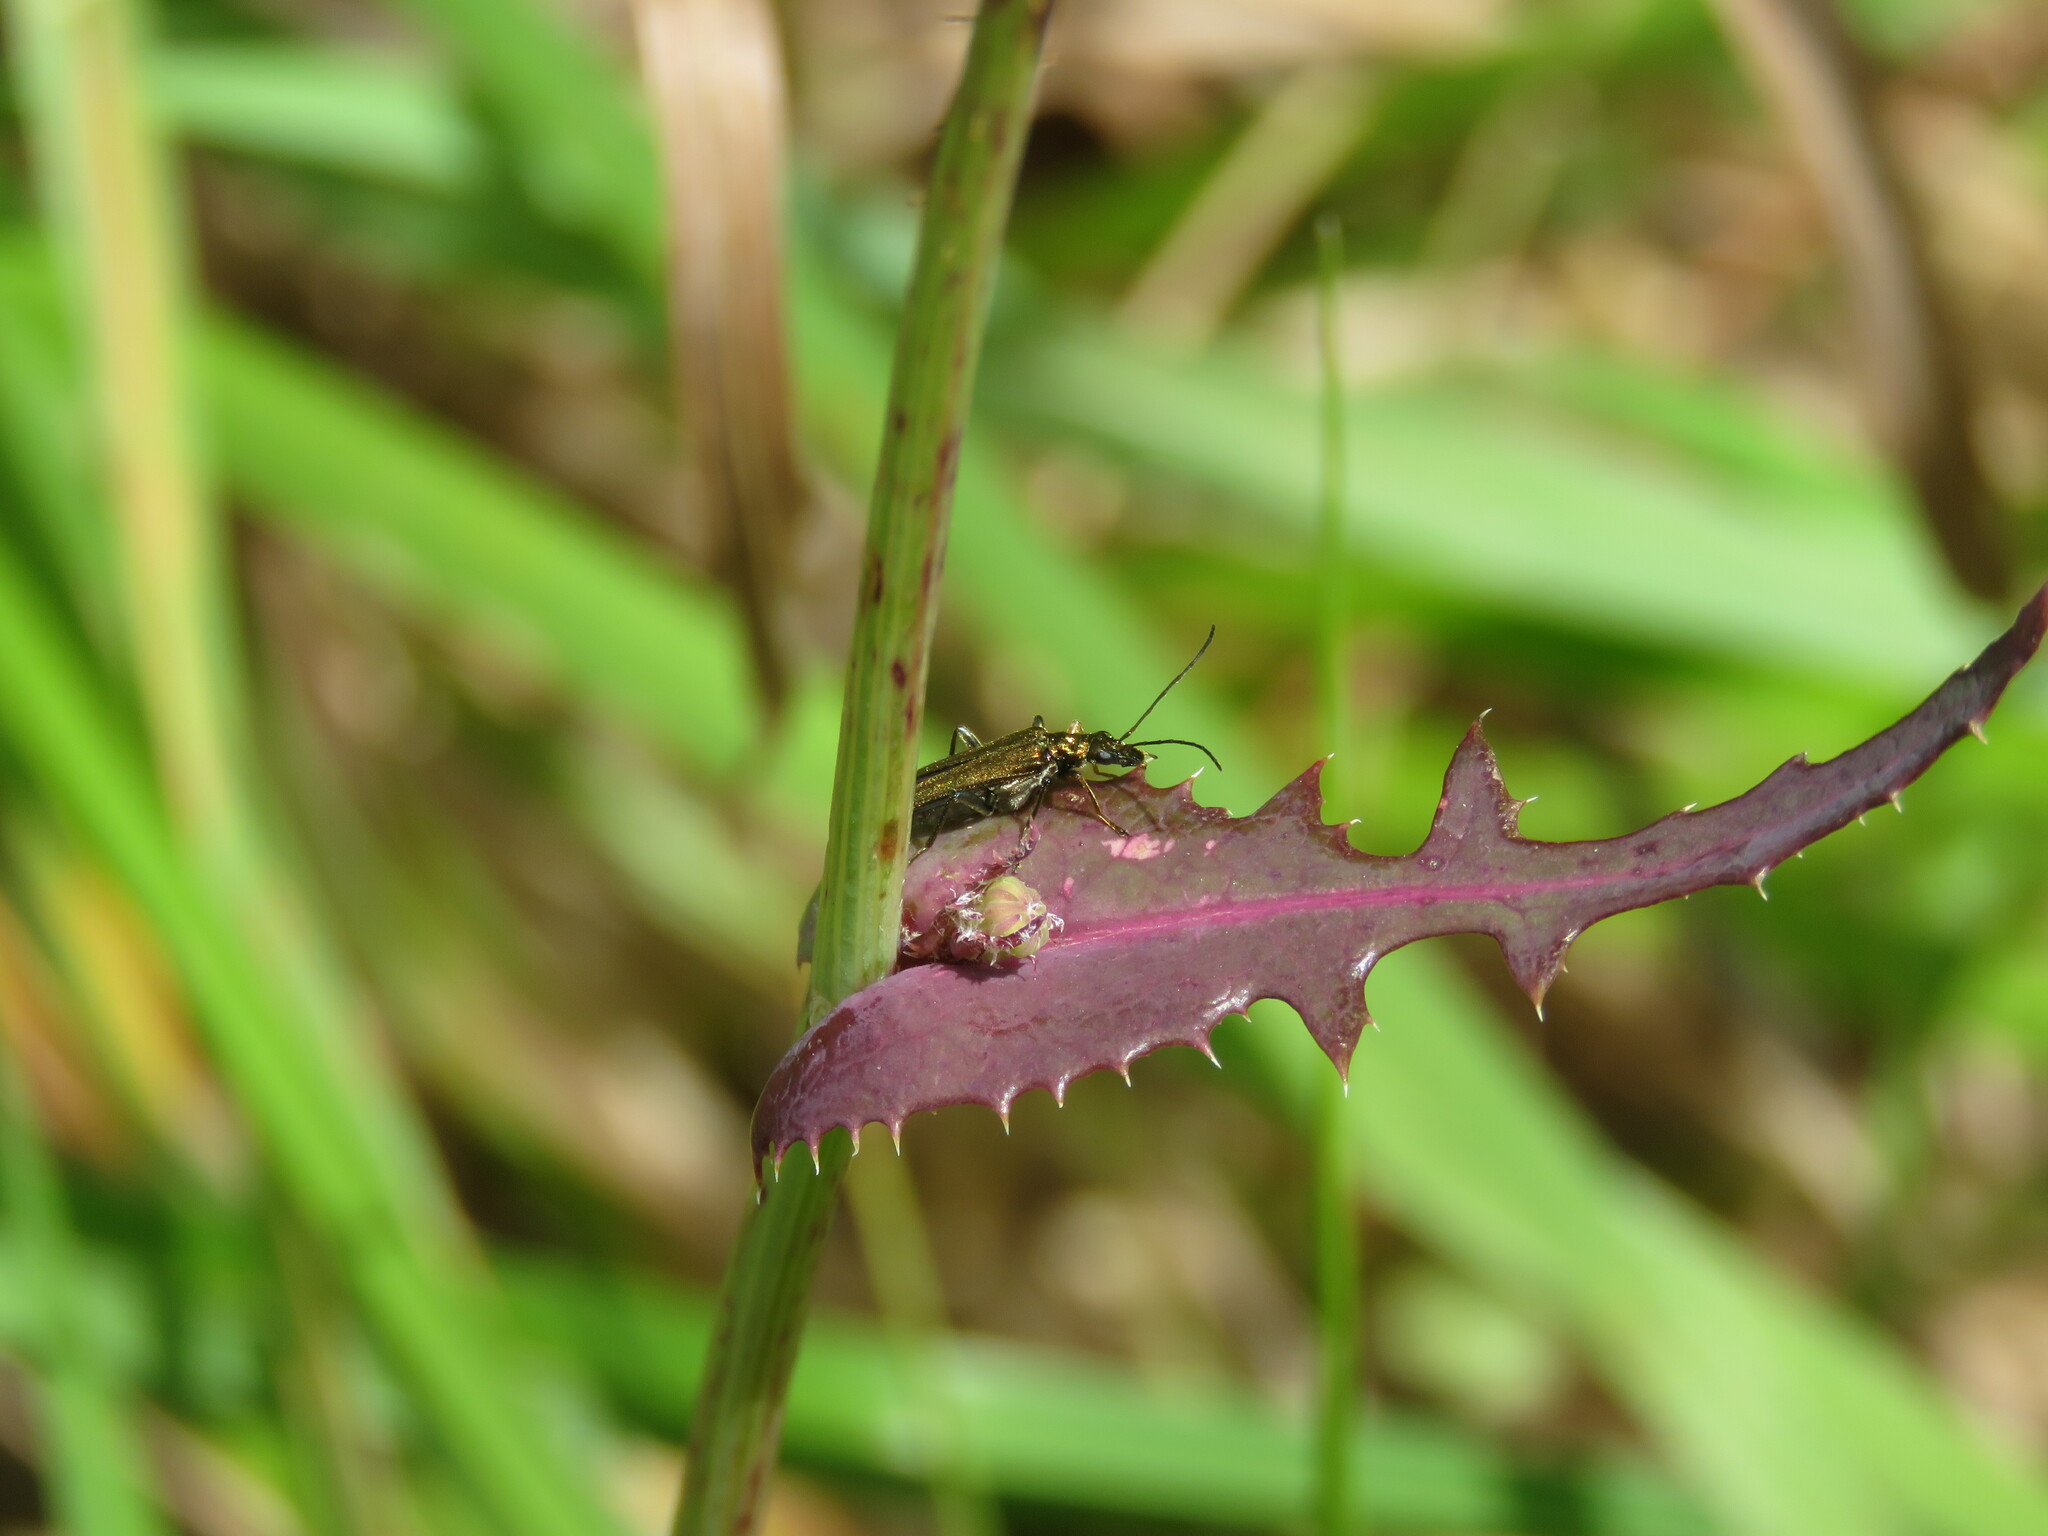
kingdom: Animalia
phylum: Arthropoda
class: Insecta
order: Coleoptera
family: Oedemeridae
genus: Oedemera
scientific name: Oedemera flavipes
